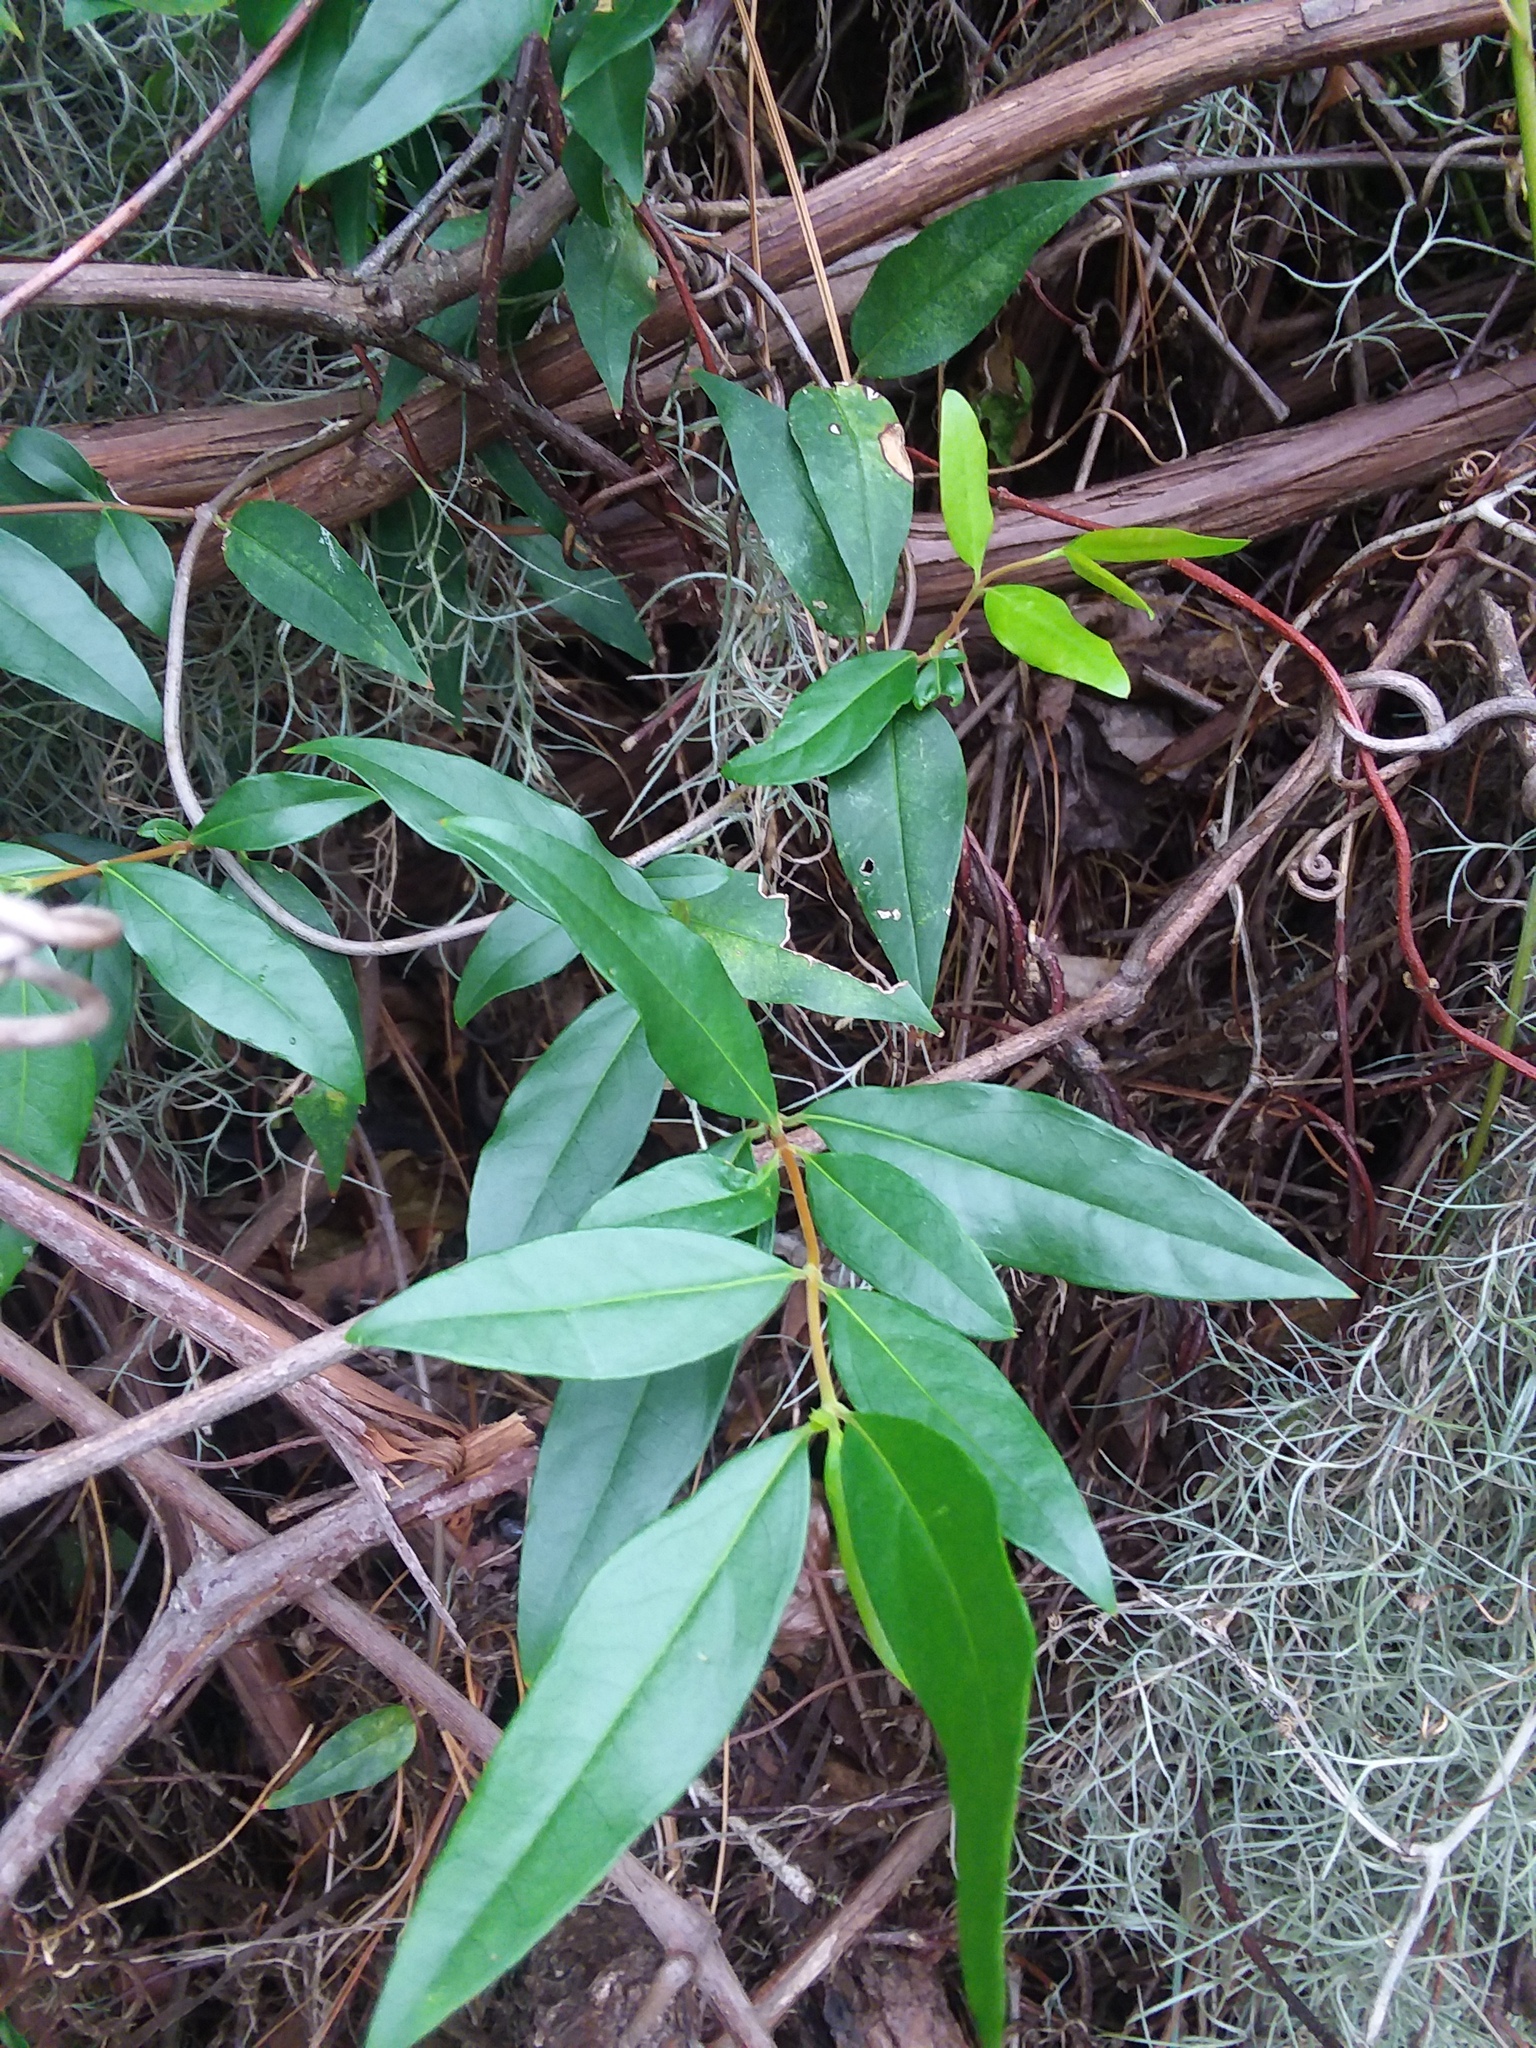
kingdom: Plantae
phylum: Tracheophyta
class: Magnoliopsida
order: Gentianales
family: Gelsemiaceae
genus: Gelsemium
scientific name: Gelsemium sempervirens
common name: Carolina-jasmine
